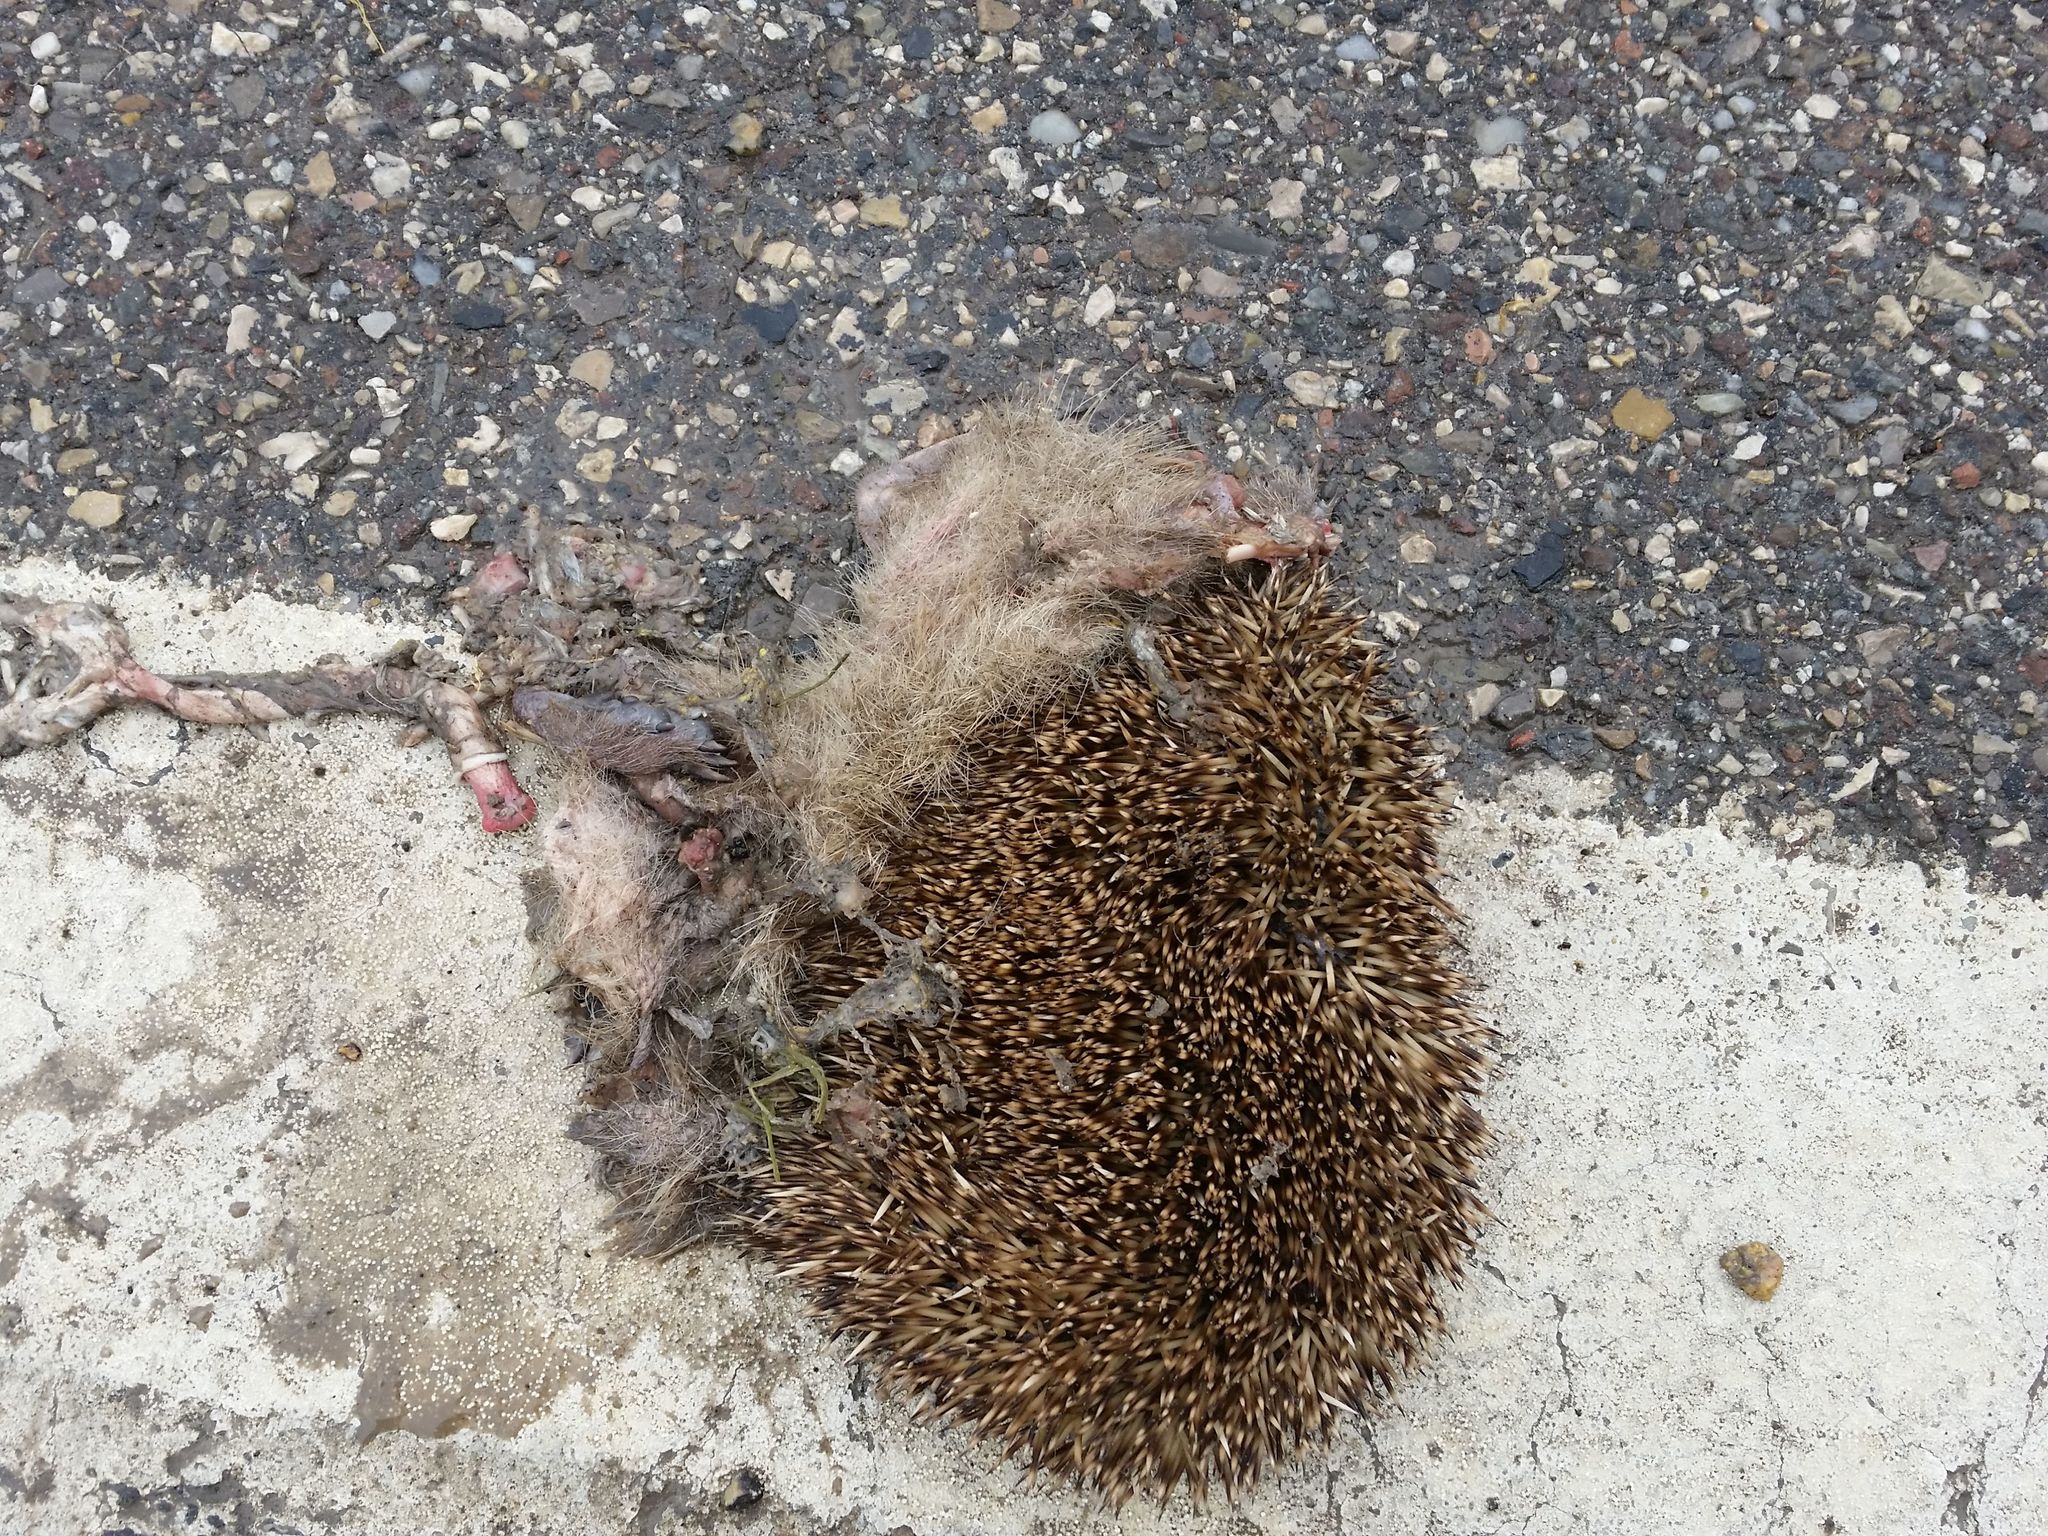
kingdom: Animalia
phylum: Chordata
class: Mammalia
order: Erinaceomorpha
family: Erinaceidae
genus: Erinaceus
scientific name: Erinaceus europaeus
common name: West european hedgehog
